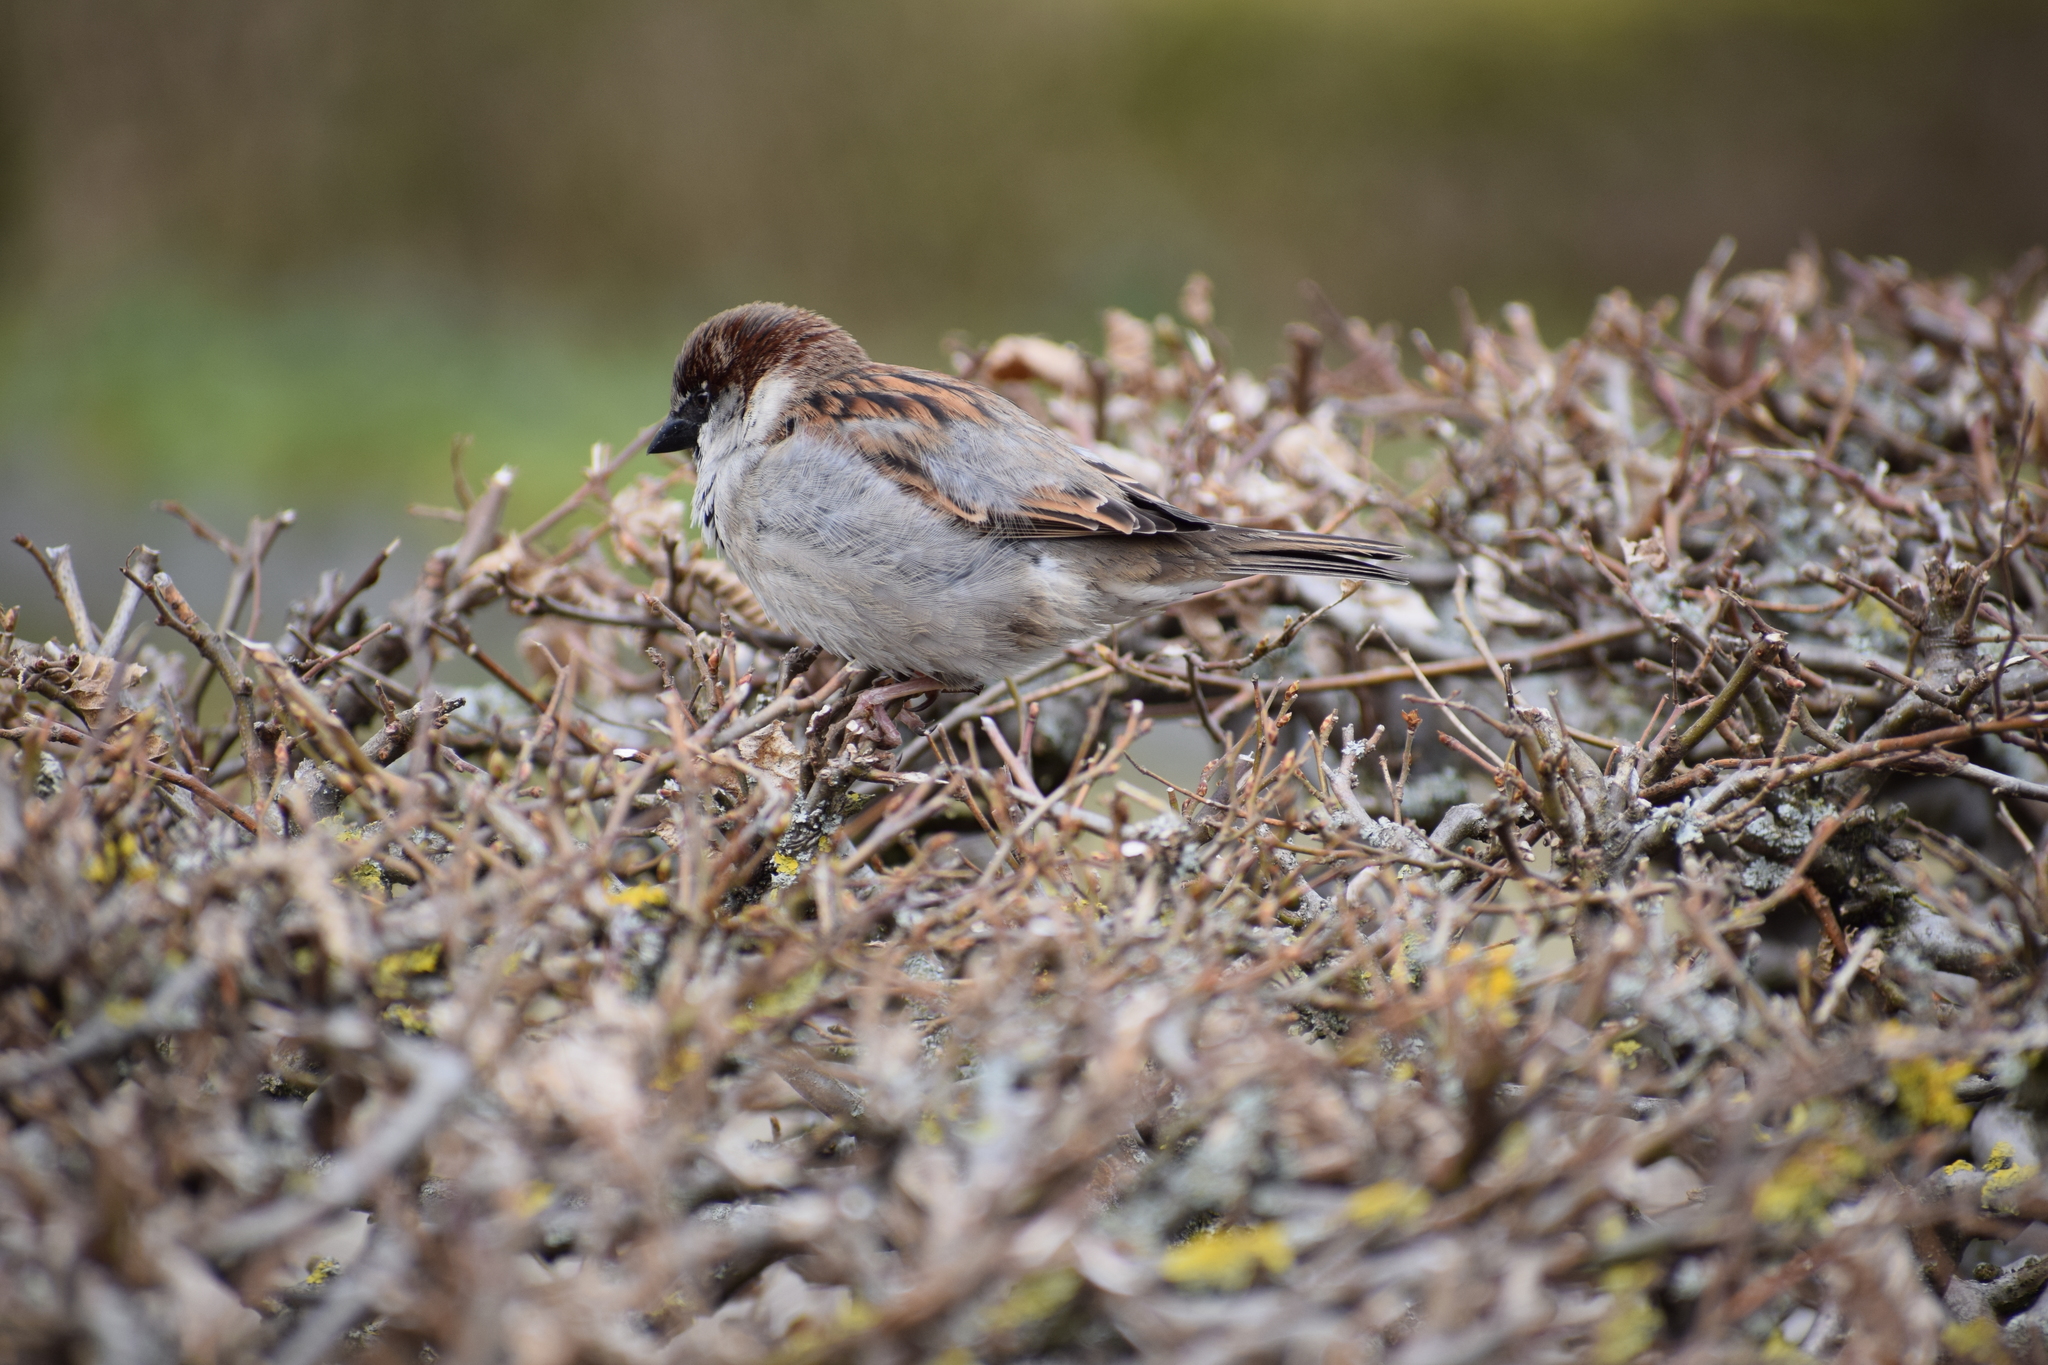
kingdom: Animalia
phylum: Chordata
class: Aves
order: Passeriformes
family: Passeridae
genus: Passer
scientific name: Passer domesticus
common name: House sparrow
